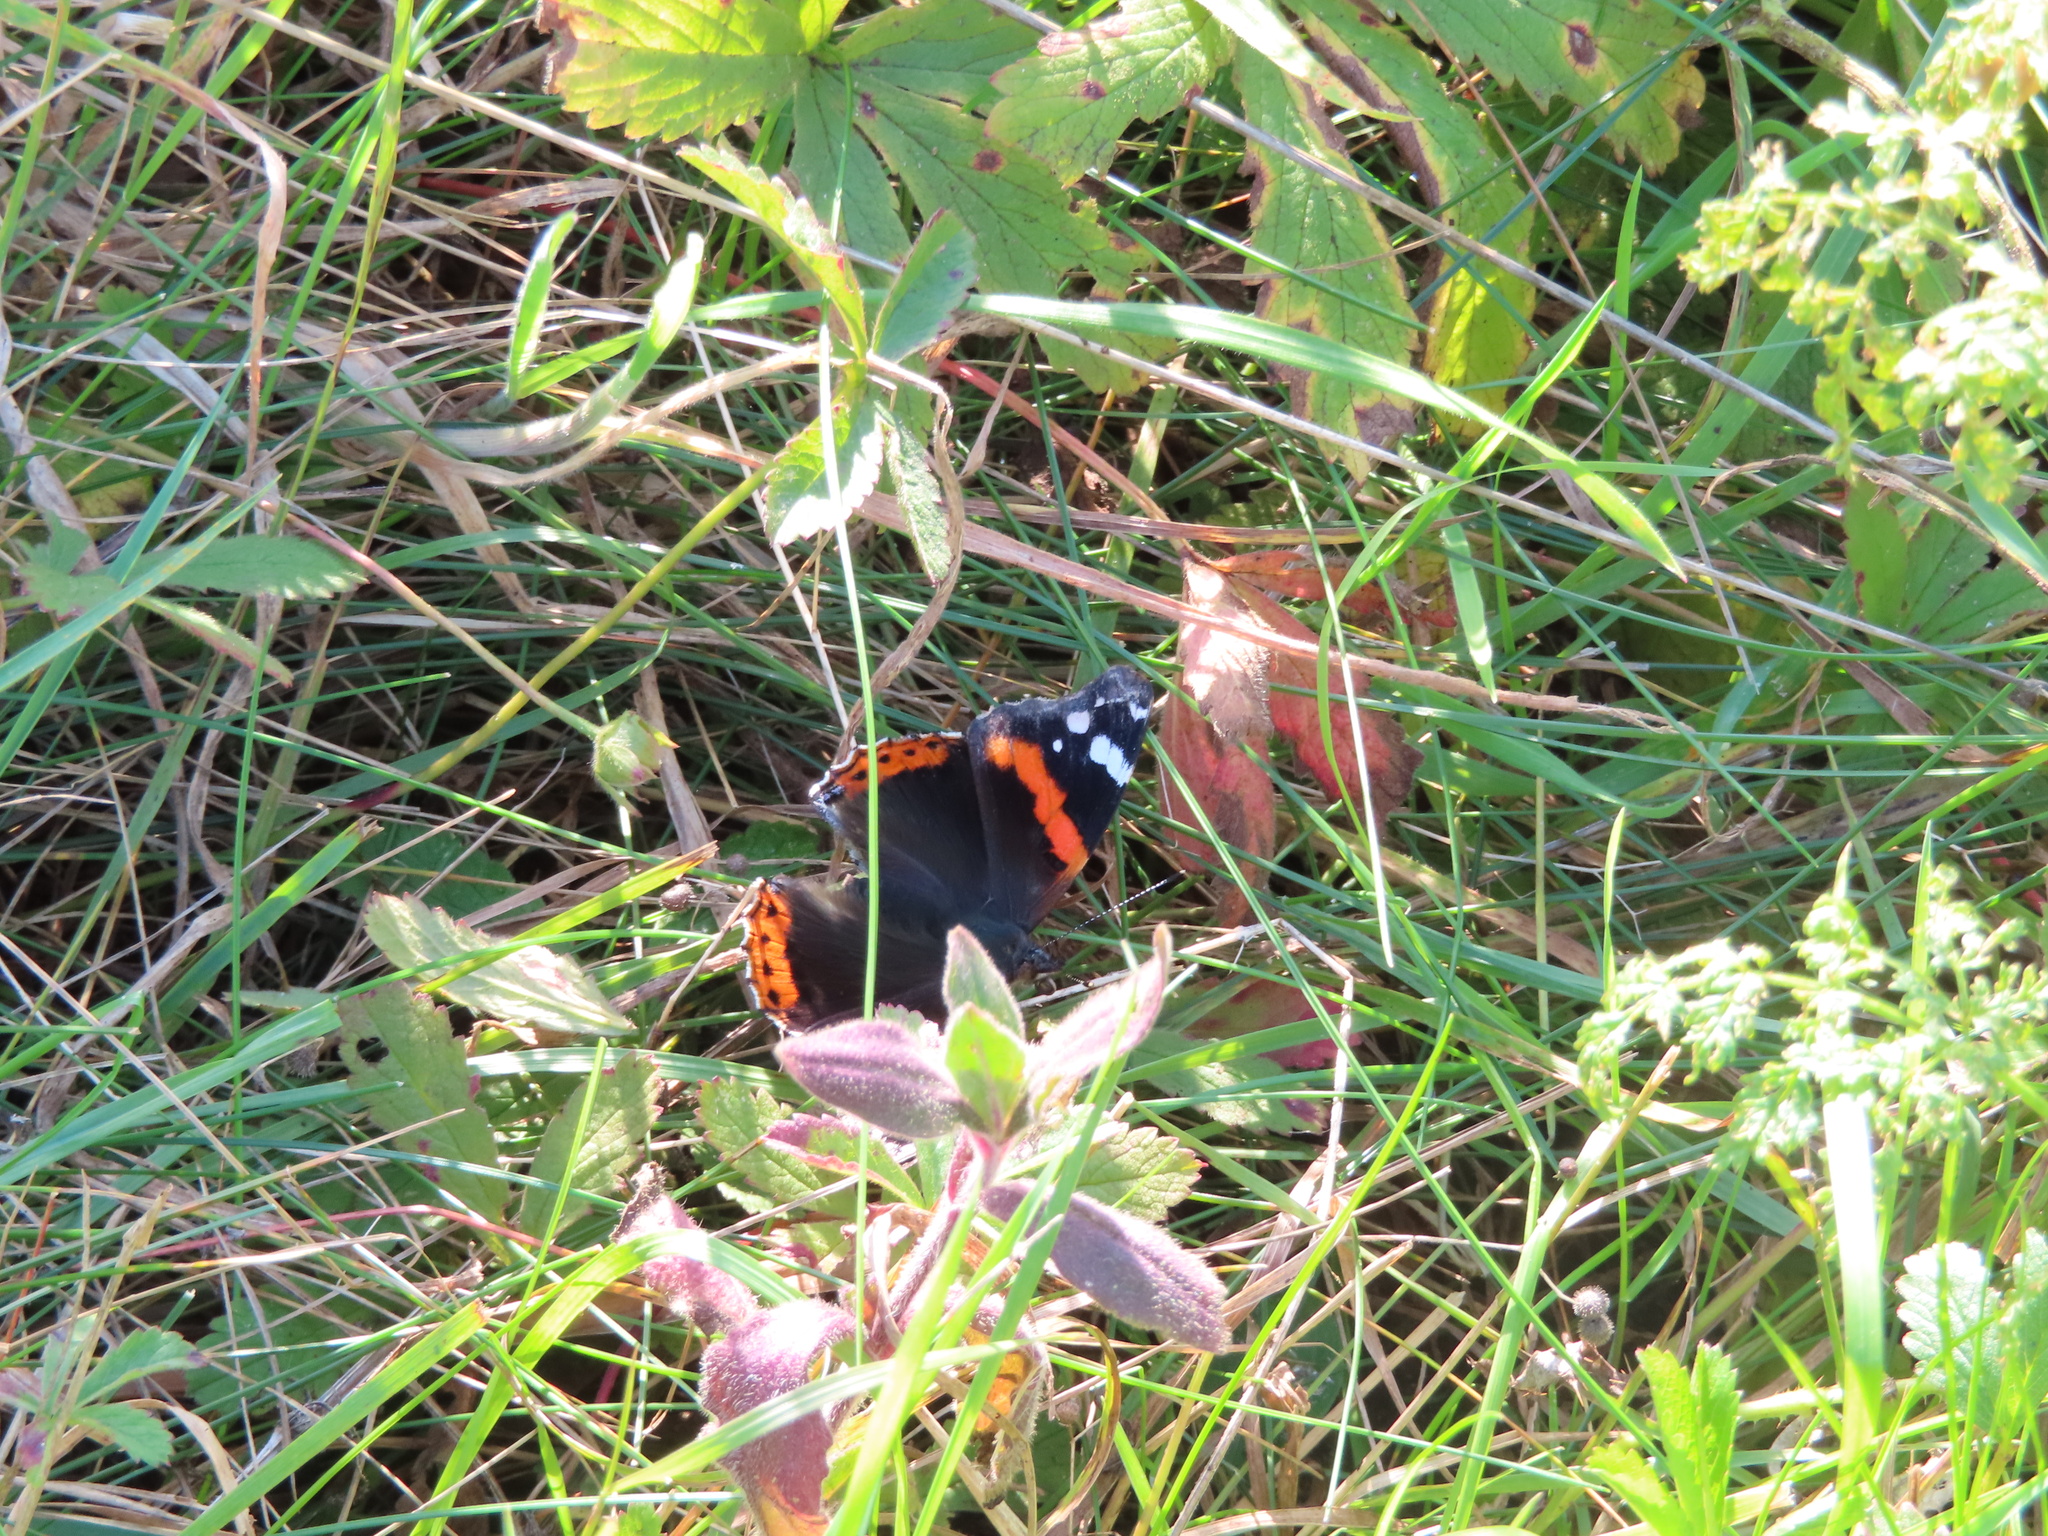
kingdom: Animalia
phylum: Arthropoda
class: Insecta
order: Lepidoptera
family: Nymphalidae
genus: Vanessa
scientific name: Vanessa atalanta
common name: Red admiral
